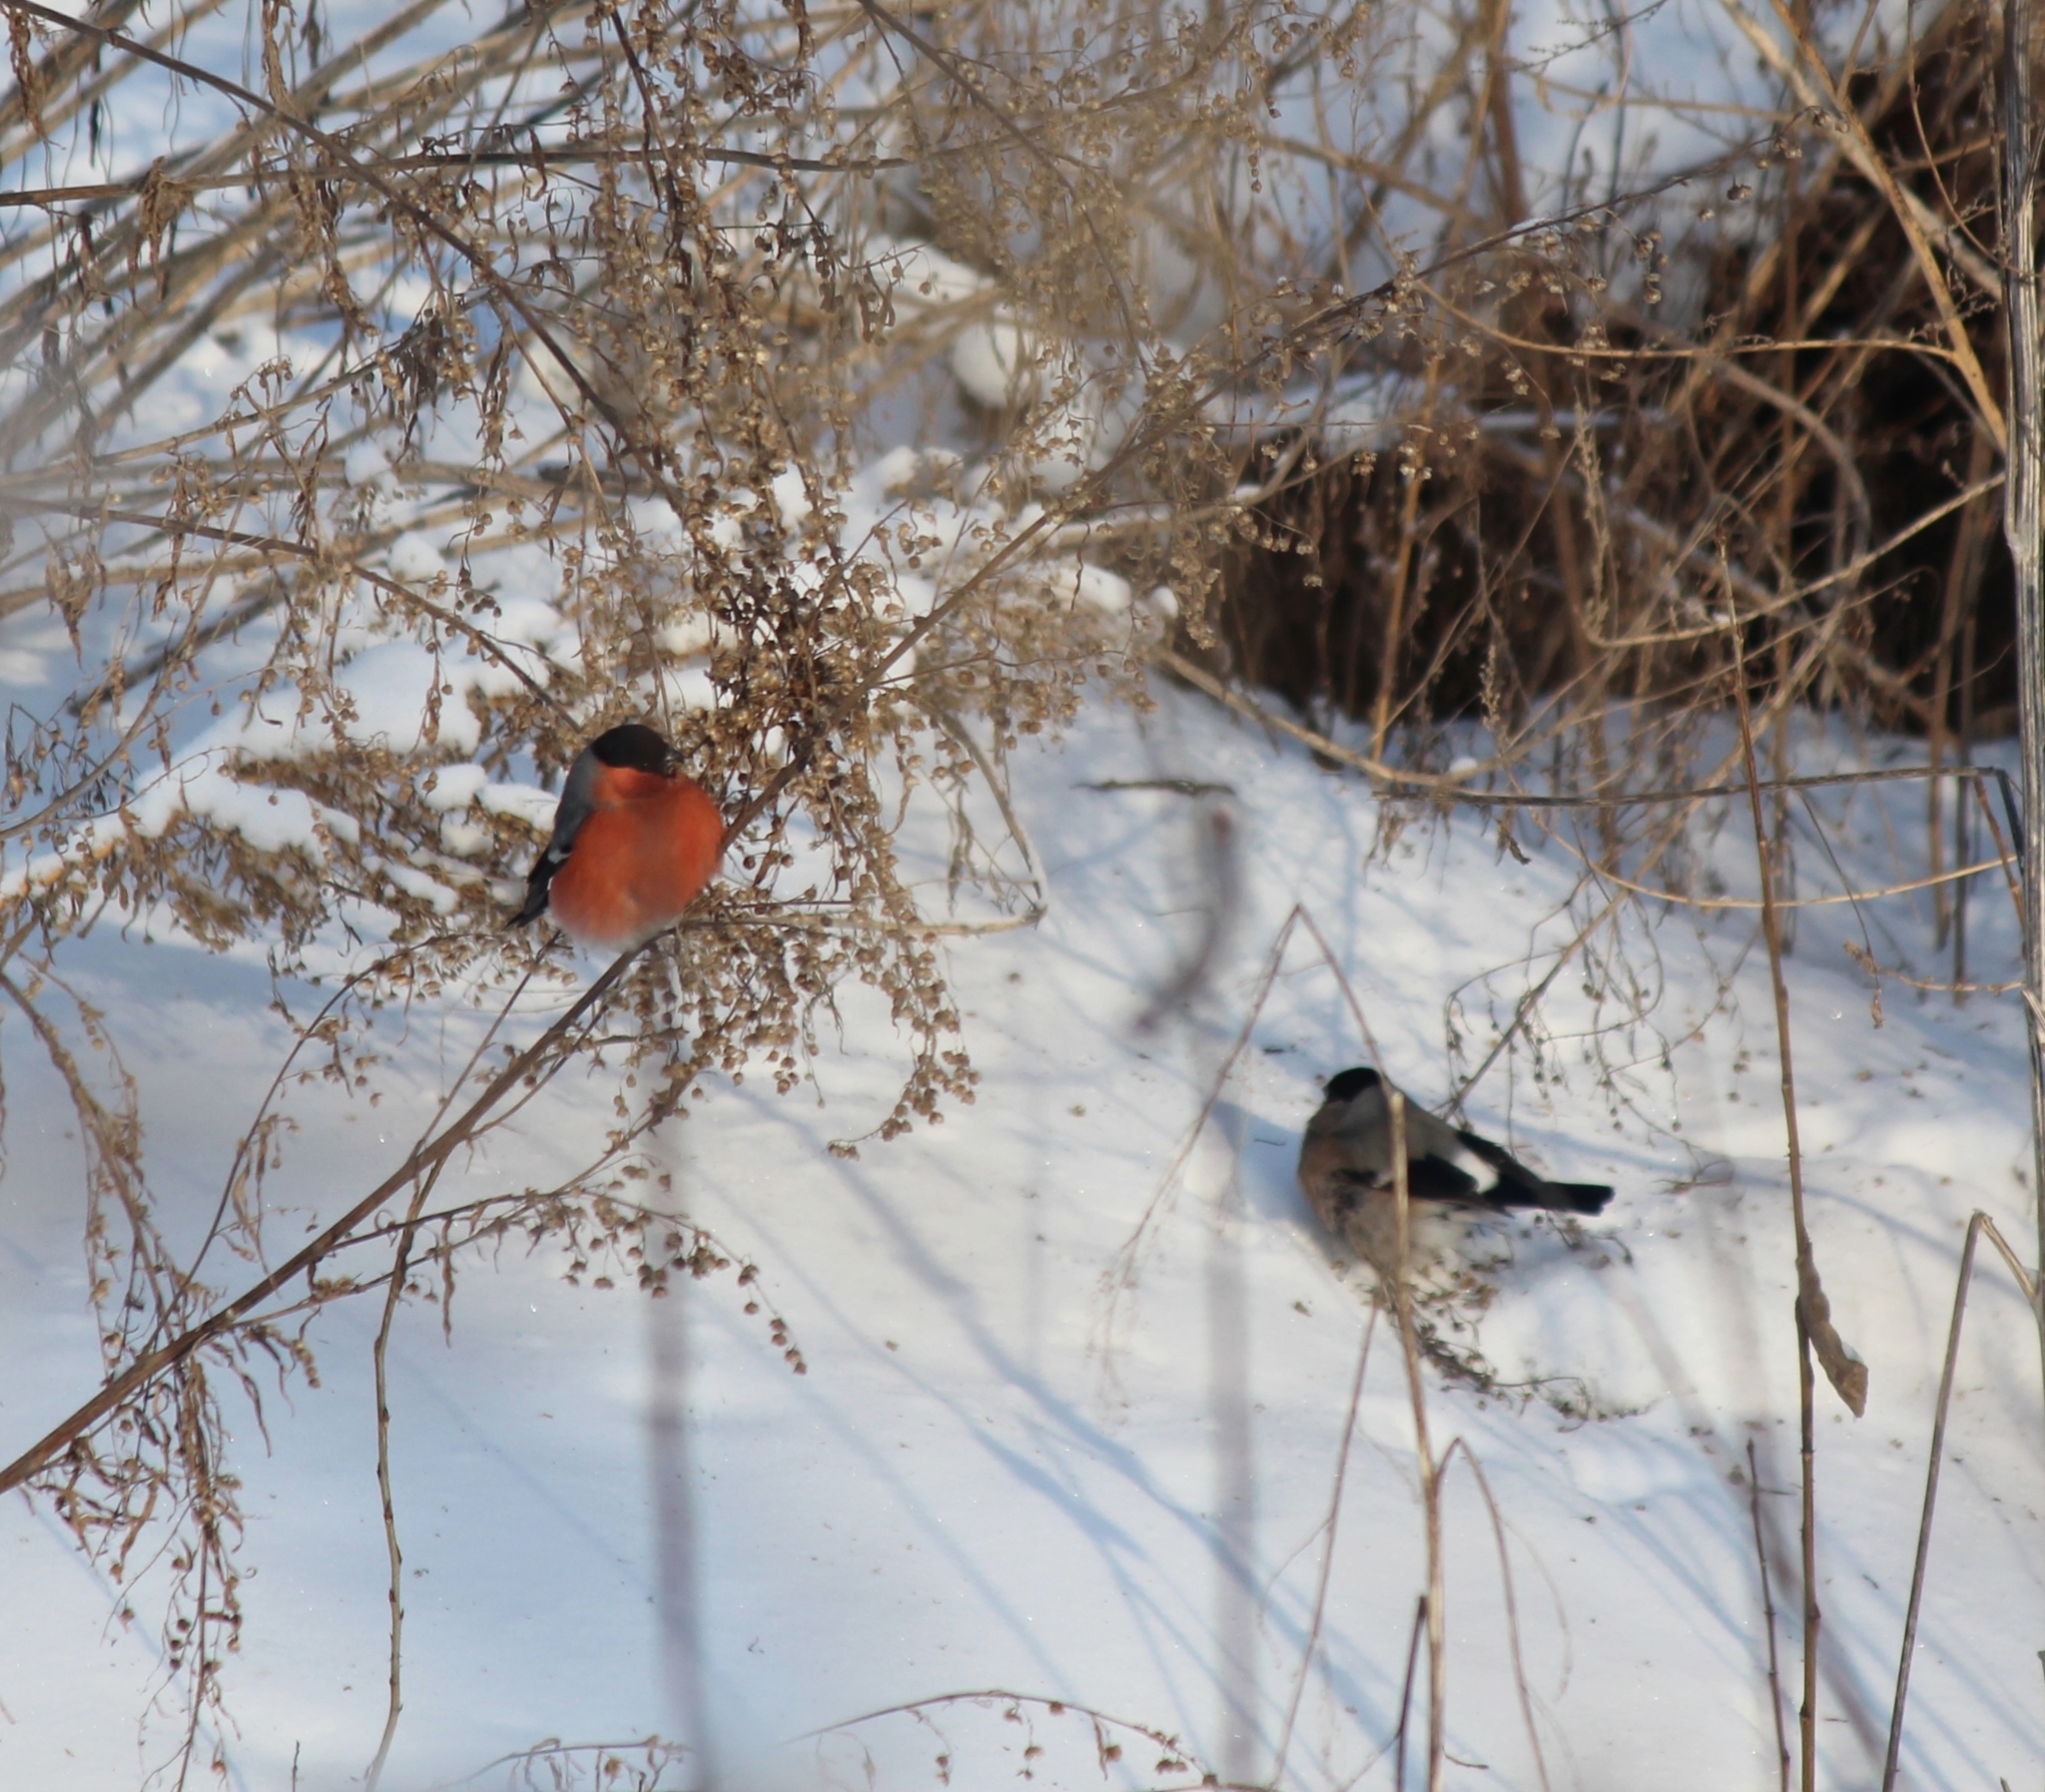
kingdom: Animalia
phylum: Chordata
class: Aves
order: Passeriformes
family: Fringillidae
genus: Pyrrhula
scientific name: Pyrrhula pyrrhula
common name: Eurasian bullfinch
